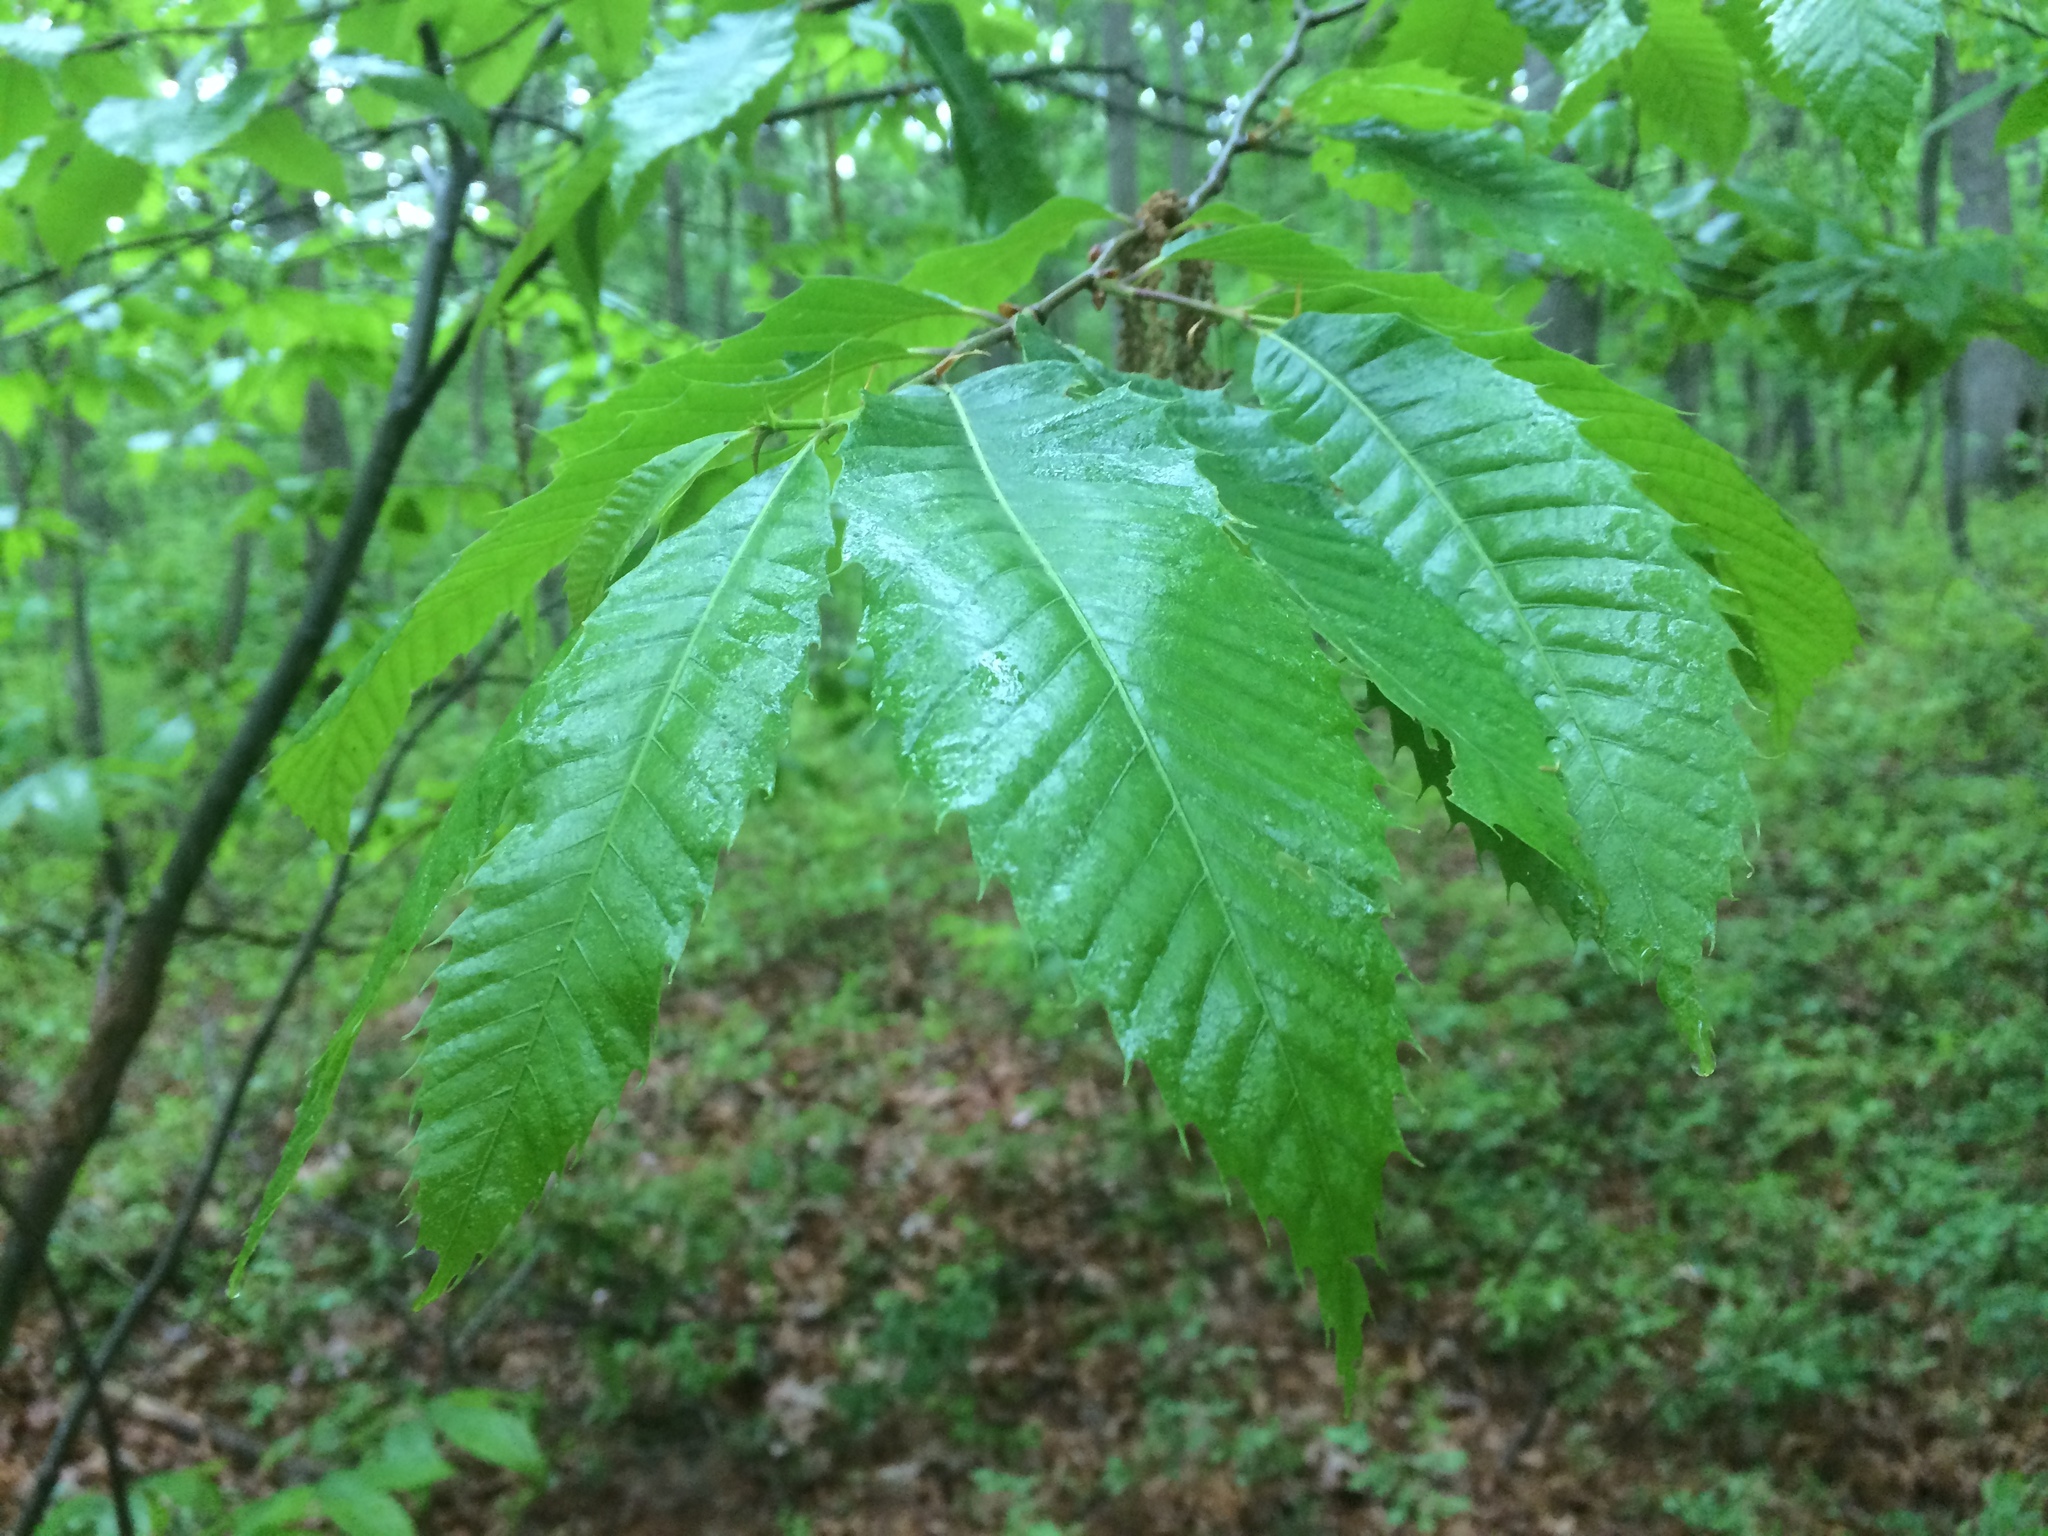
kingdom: Plantae
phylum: Tracheophyta
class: Magnoliopsida
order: Fagales
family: Fagaceae
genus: Castanea
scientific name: Castanea dentata
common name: American chestnut
